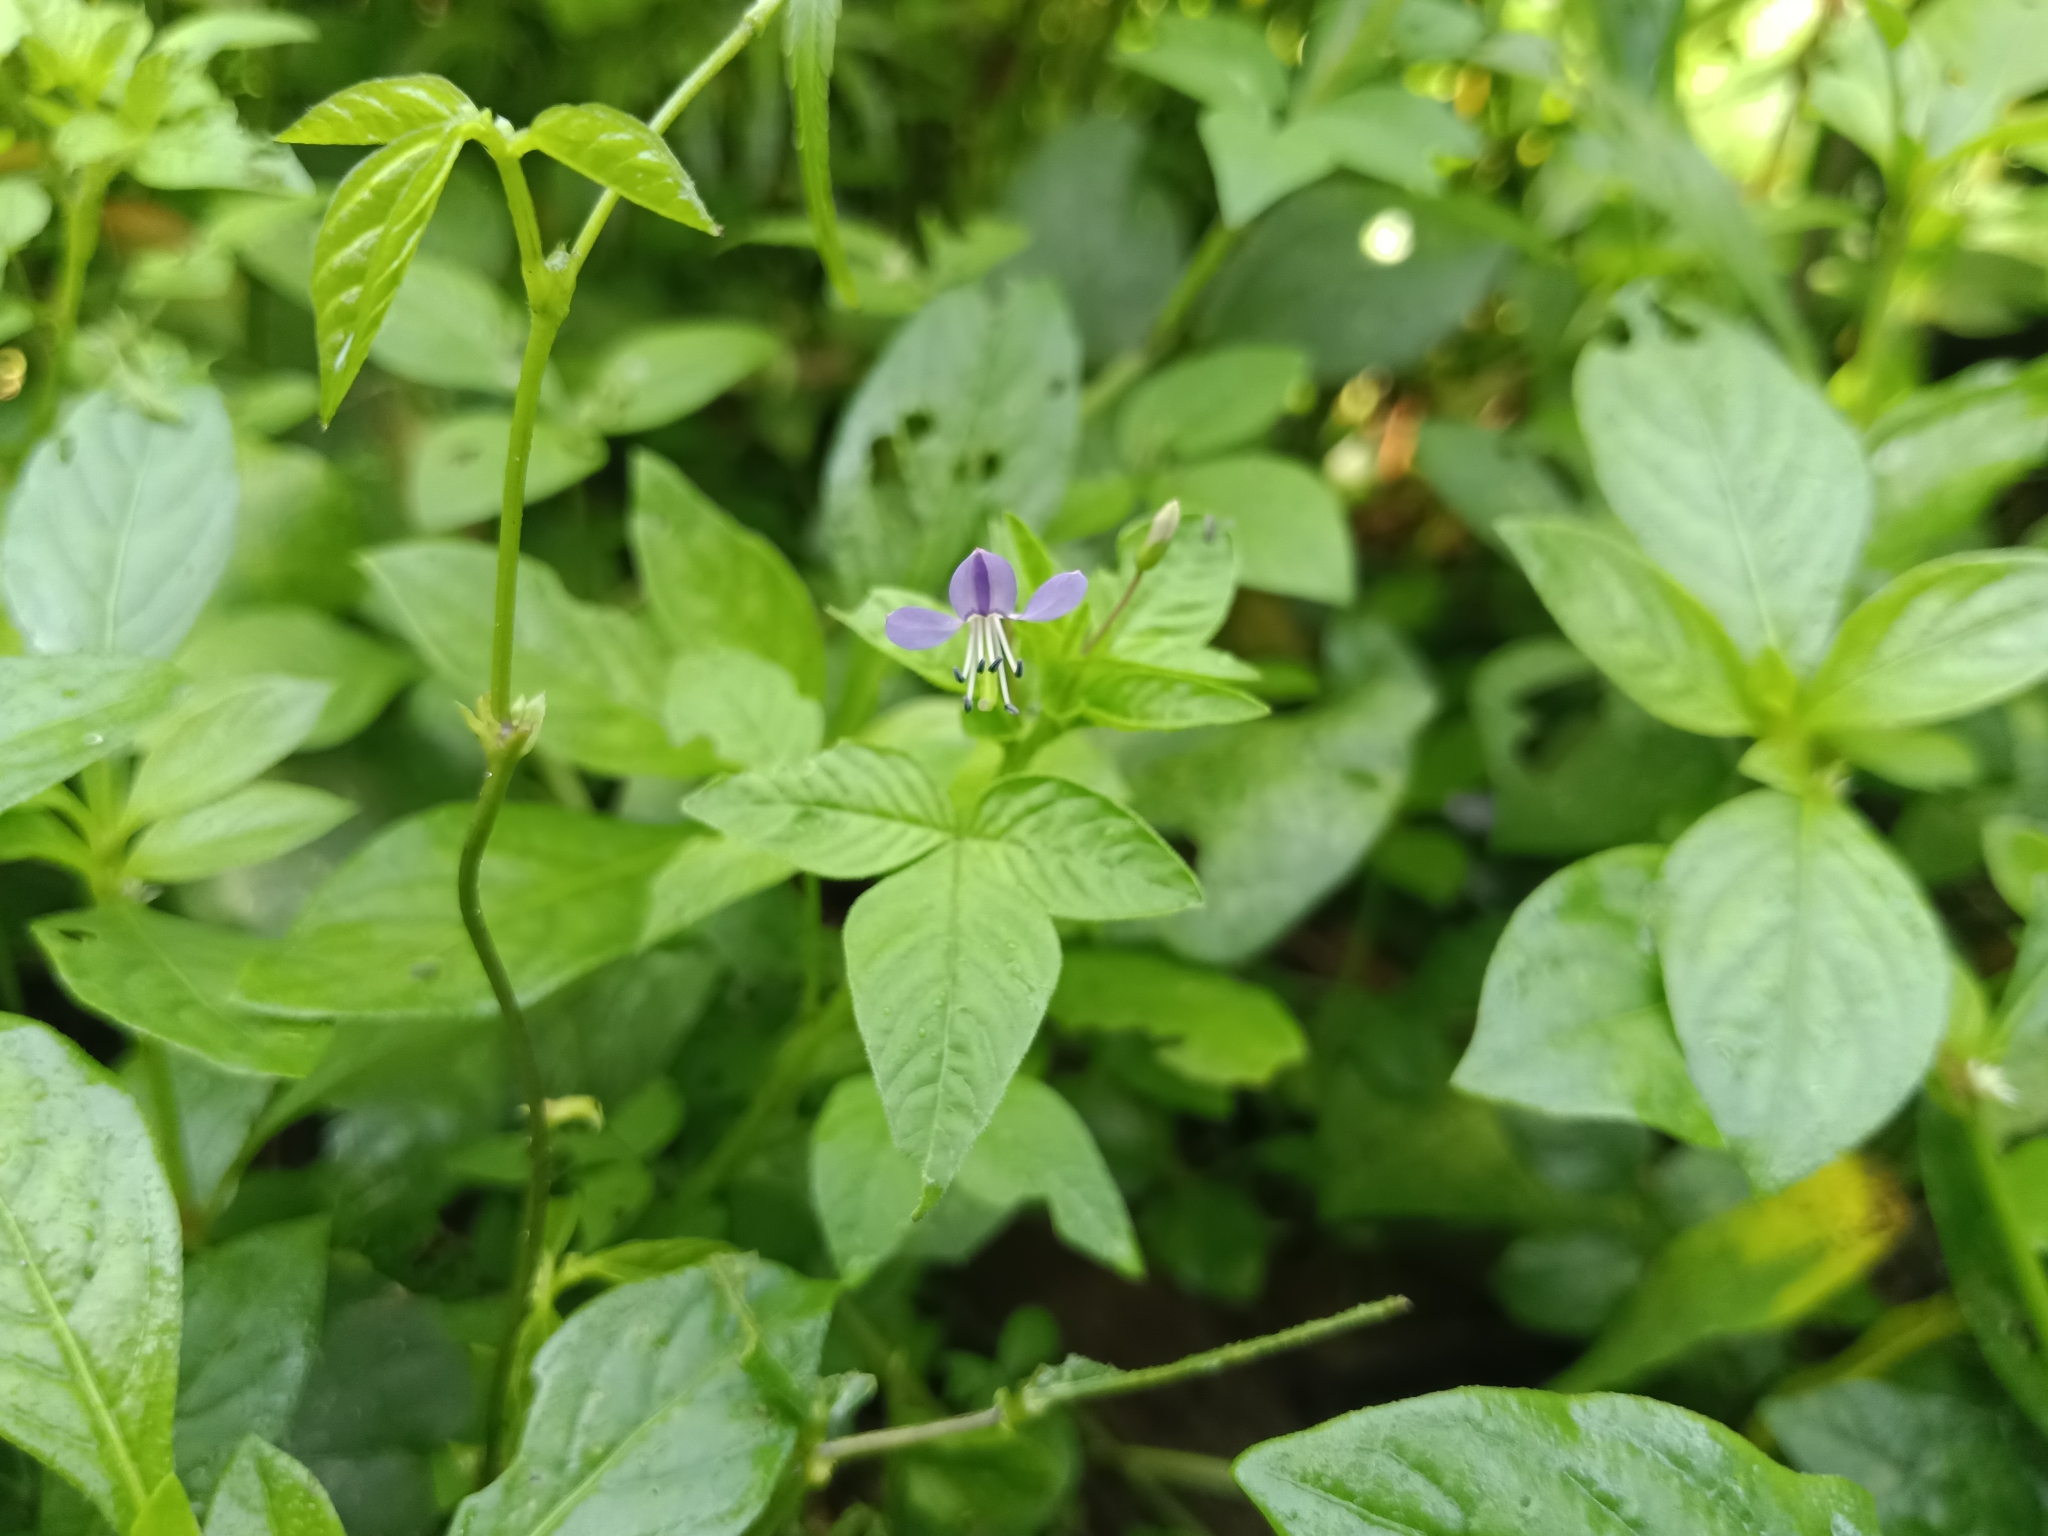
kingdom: Plantae
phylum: Tracheophyta
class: Magnoliopsida
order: Brassicales
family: Cleomaceae
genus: Sieruela
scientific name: Sieruela rutidosperma
